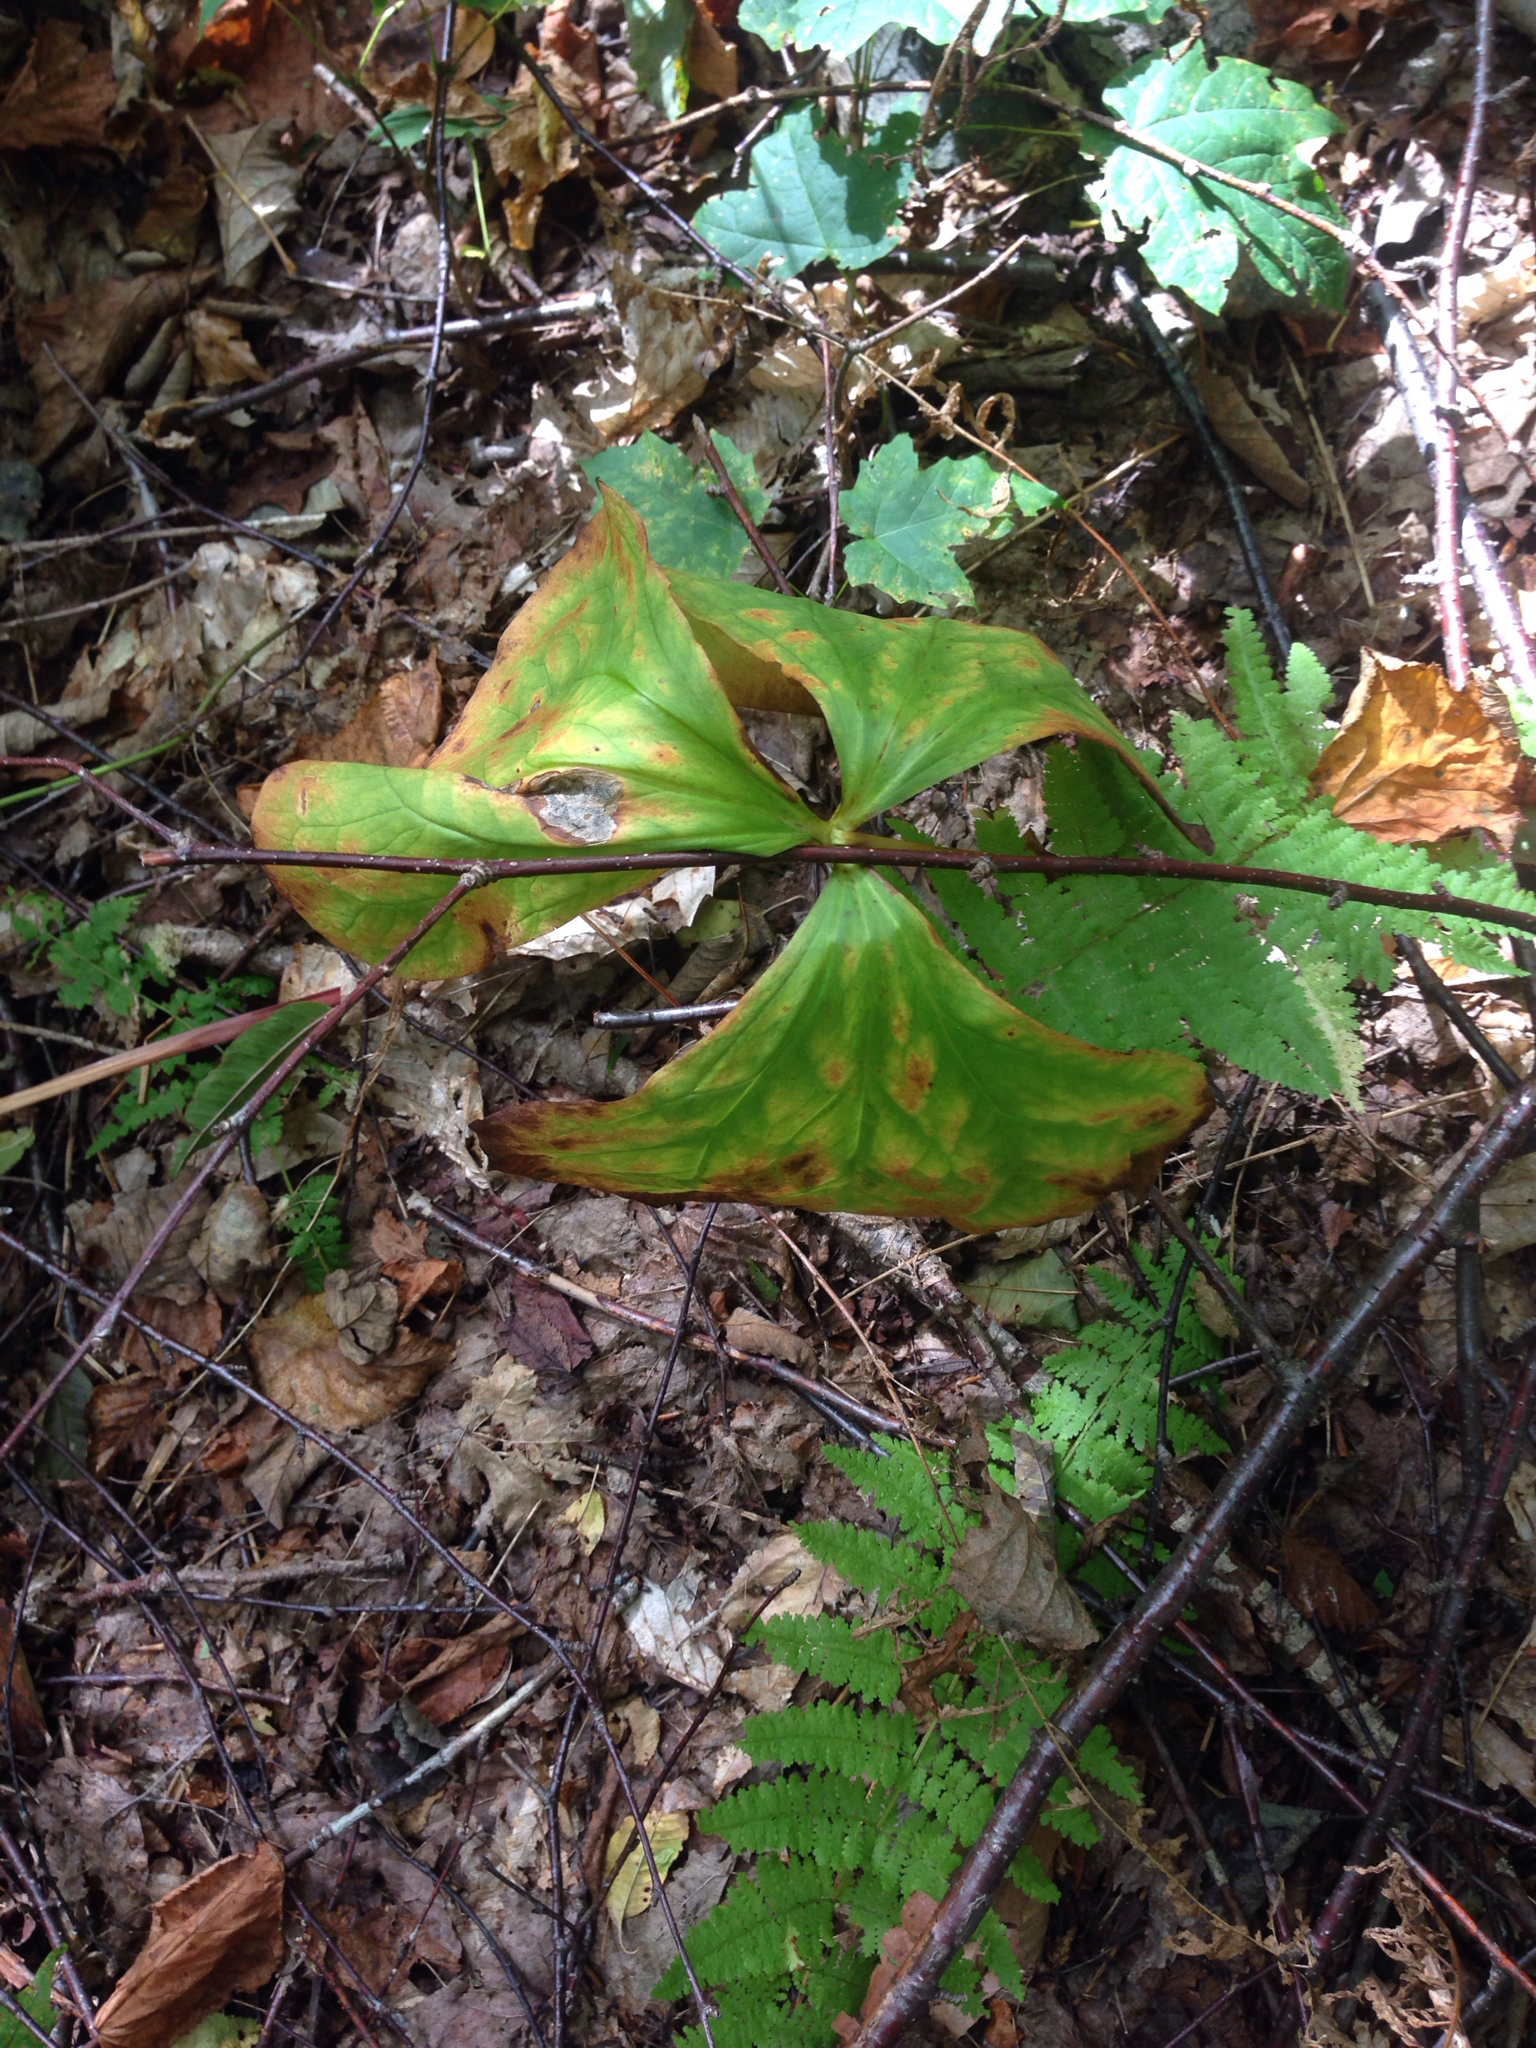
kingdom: Plantae
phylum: Tracheophyta
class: Liliopsida
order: Liliales
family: Melanthiaceae
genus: Trillium
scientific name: Trillium erectum
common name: Purple trillium
